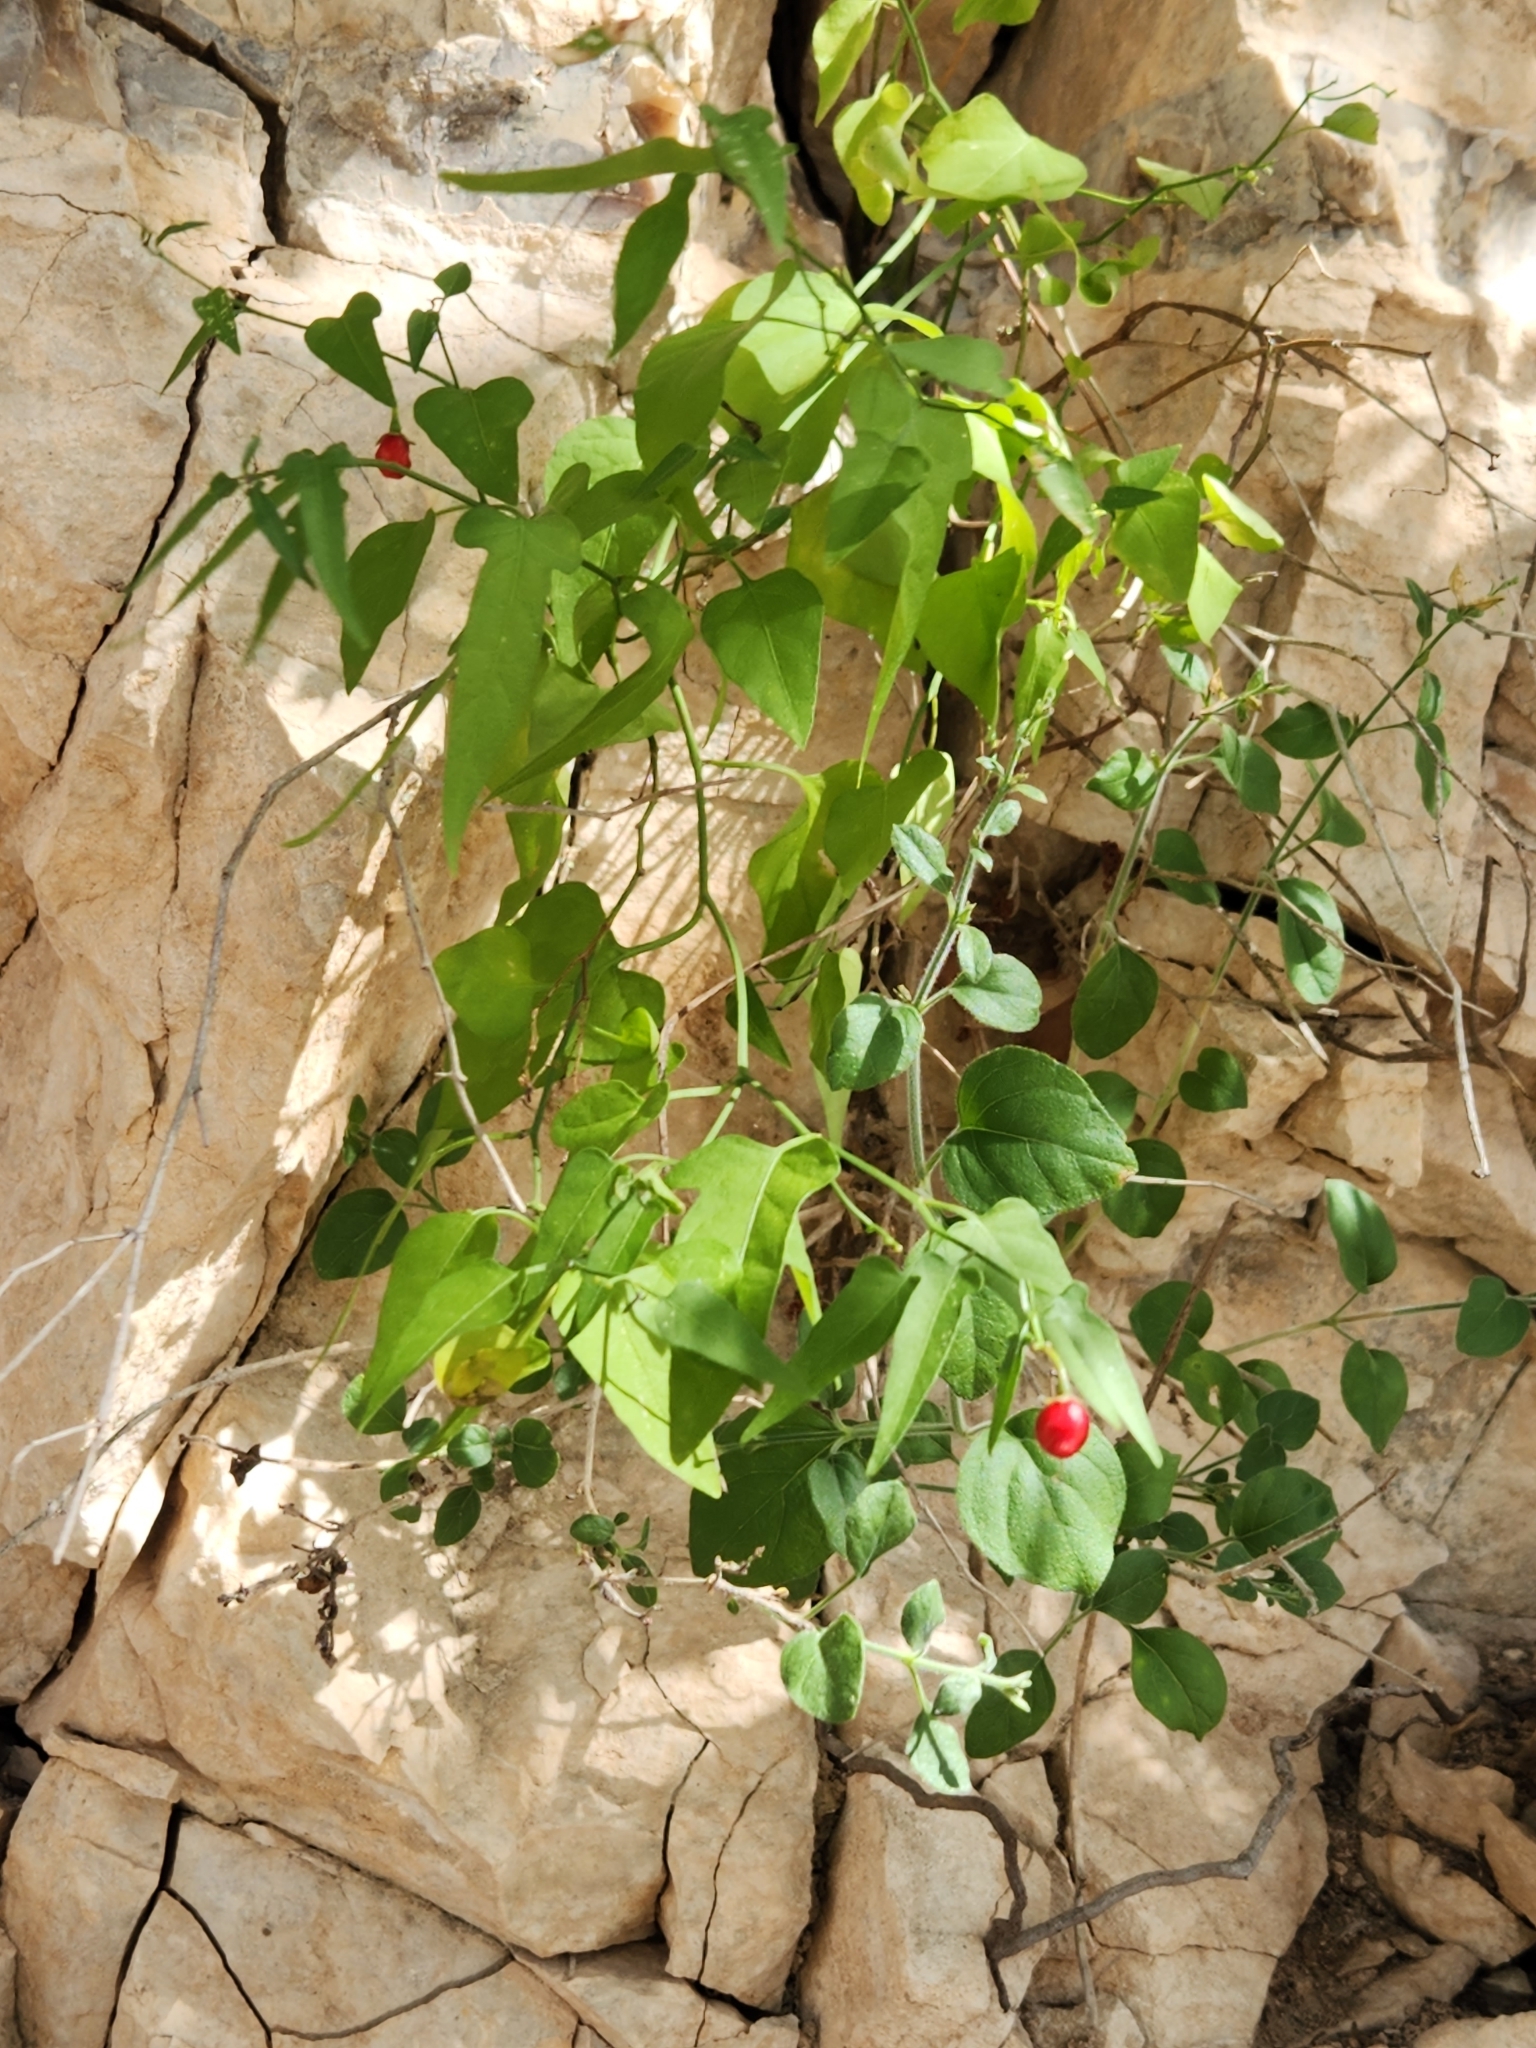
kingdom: Plantae
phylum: Tracheophyta
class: Magnoliopsida
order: Solanales
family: Solanaceae
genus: Solanum
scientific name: Solanum triquetrum
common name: Texas nightshade
